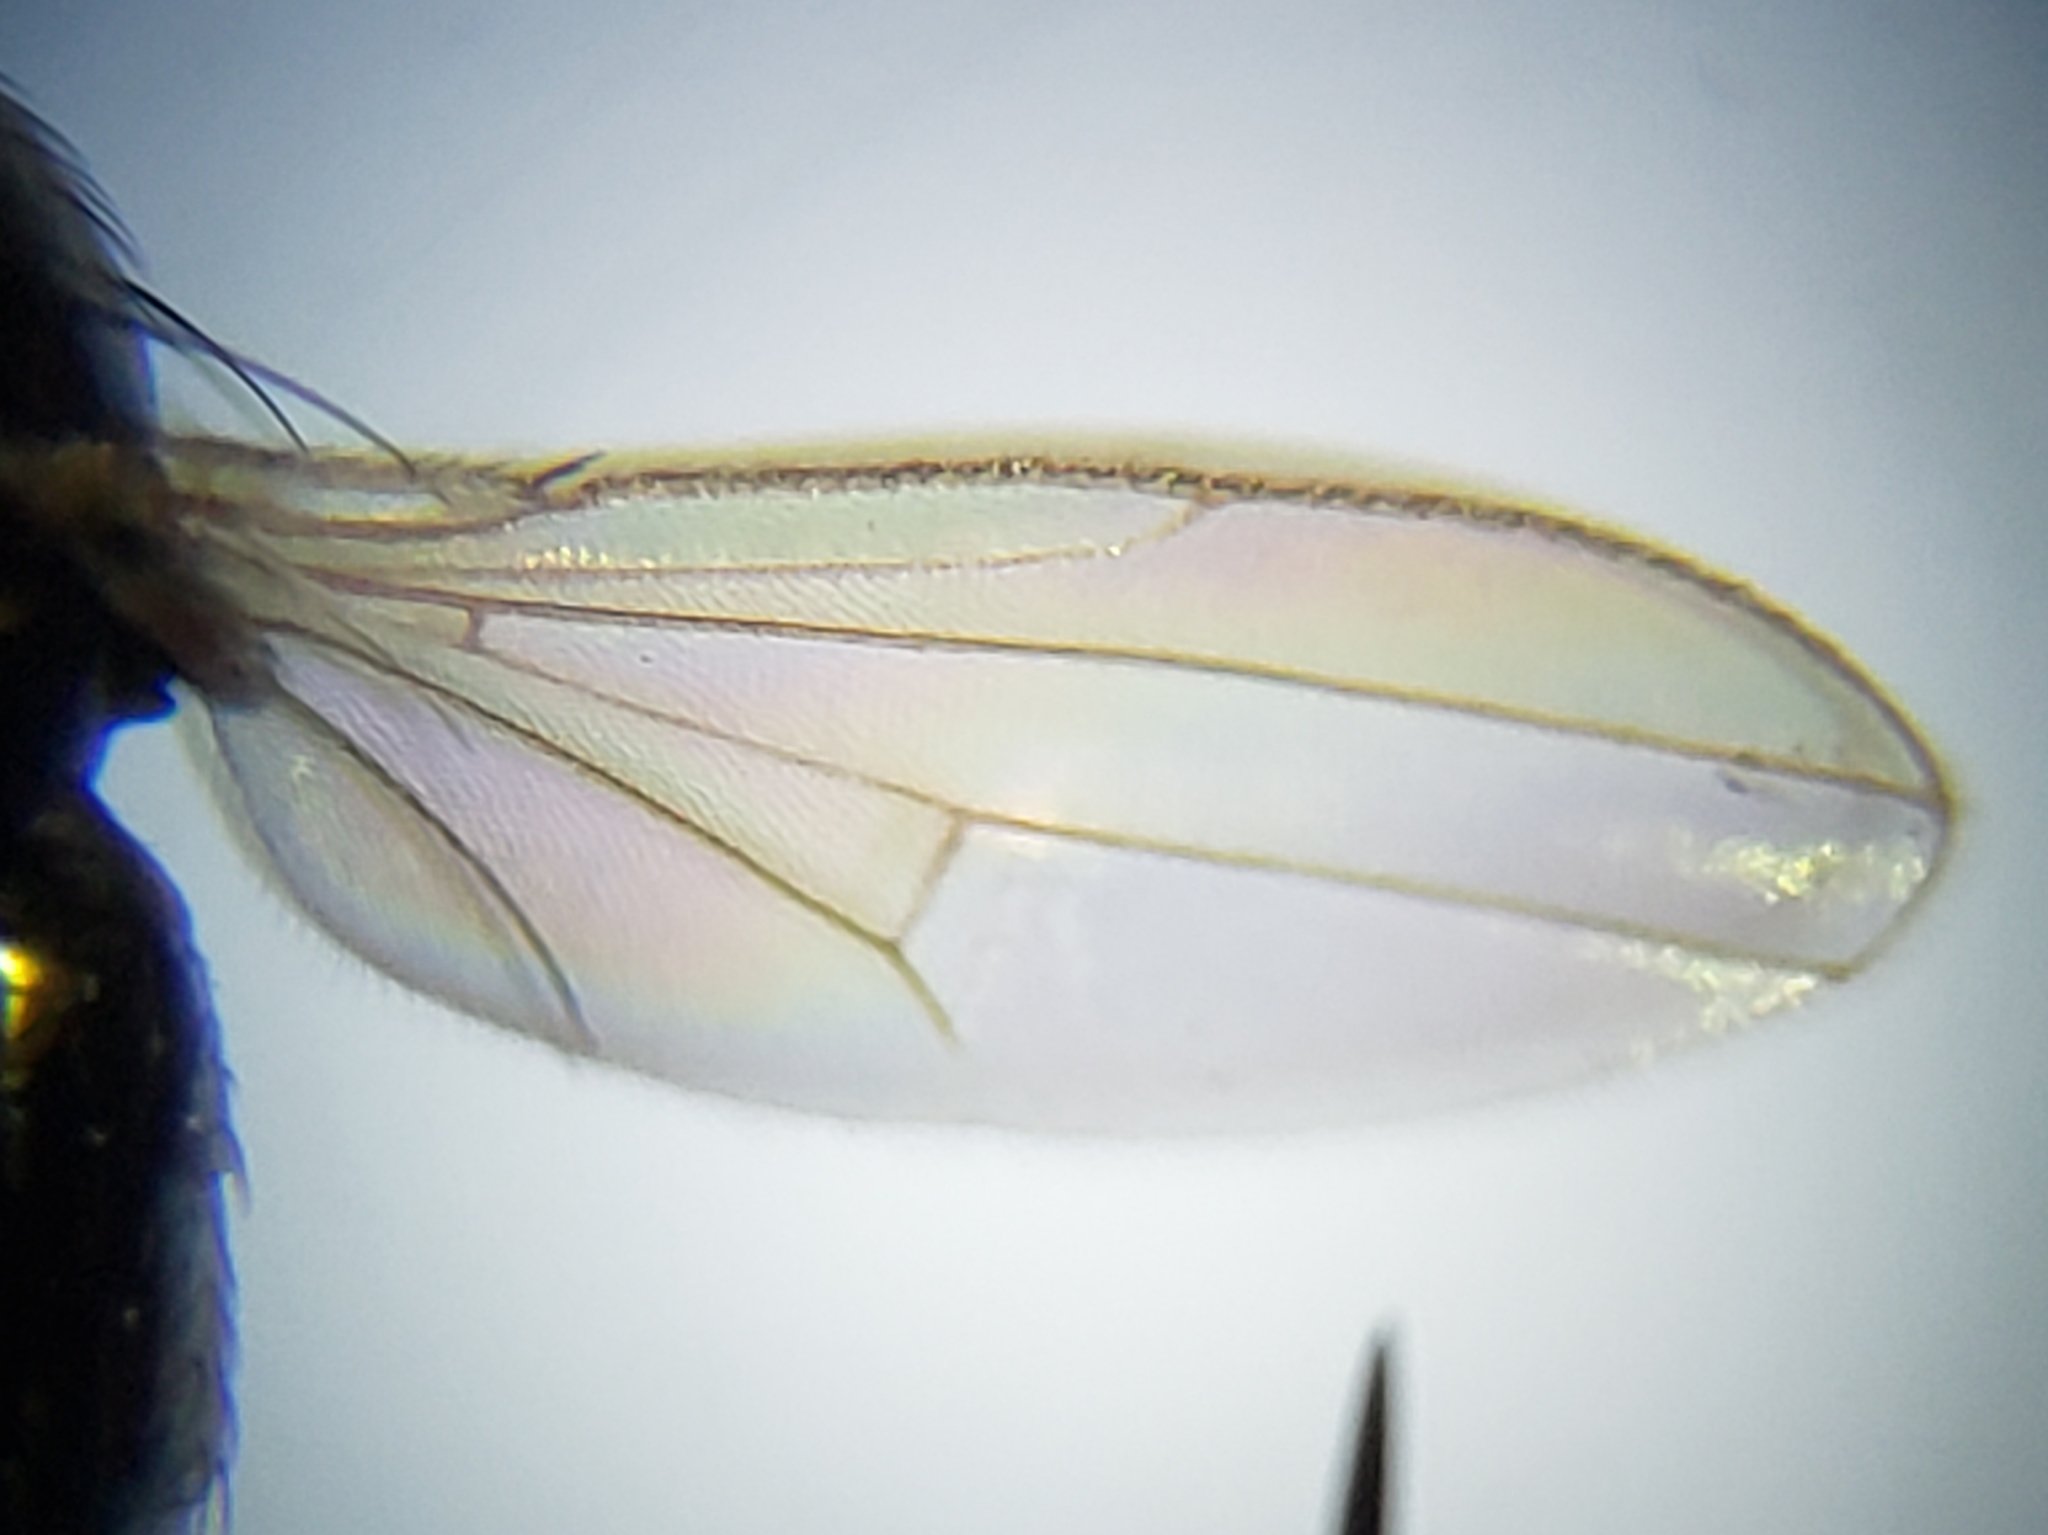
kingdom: Animalia
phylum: Arthropoda
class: Insecta
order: Diptera
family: Ephydridae
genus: Leptopsilopa
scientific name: Leptopsilopa nigrimanus
